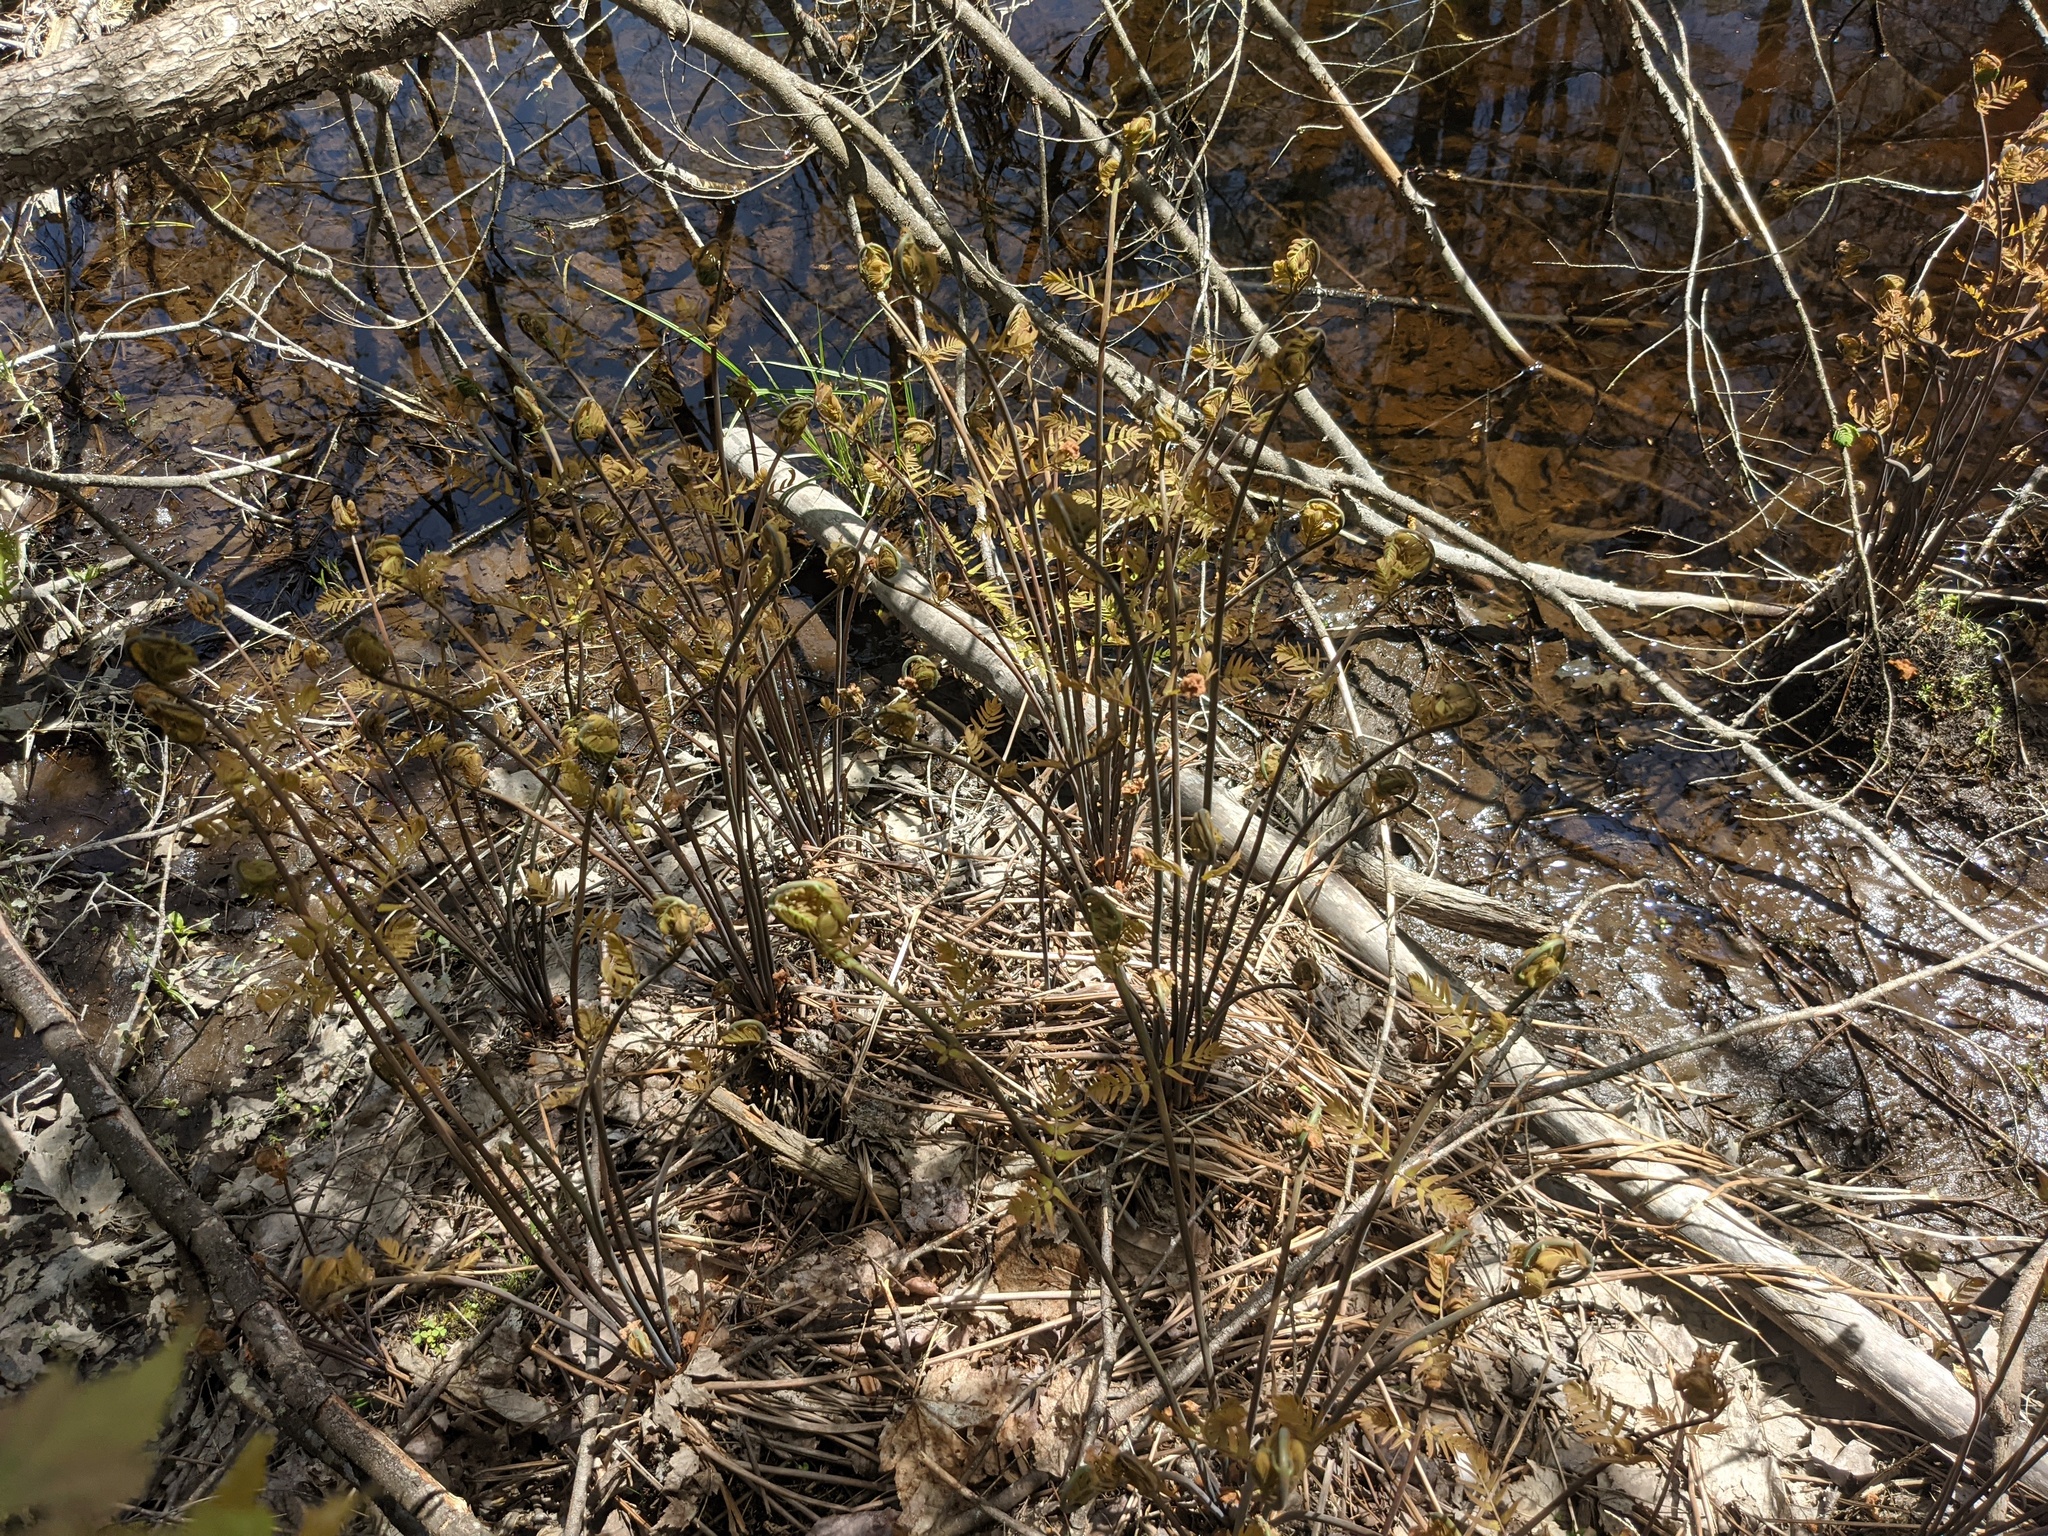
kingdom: Plantae
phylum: Tracheophyta
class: Polypodiopsida
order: Osmundales
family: Osmundaceae
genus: Osmunda
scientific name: Osmunda spectabilis
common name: American royal fern
